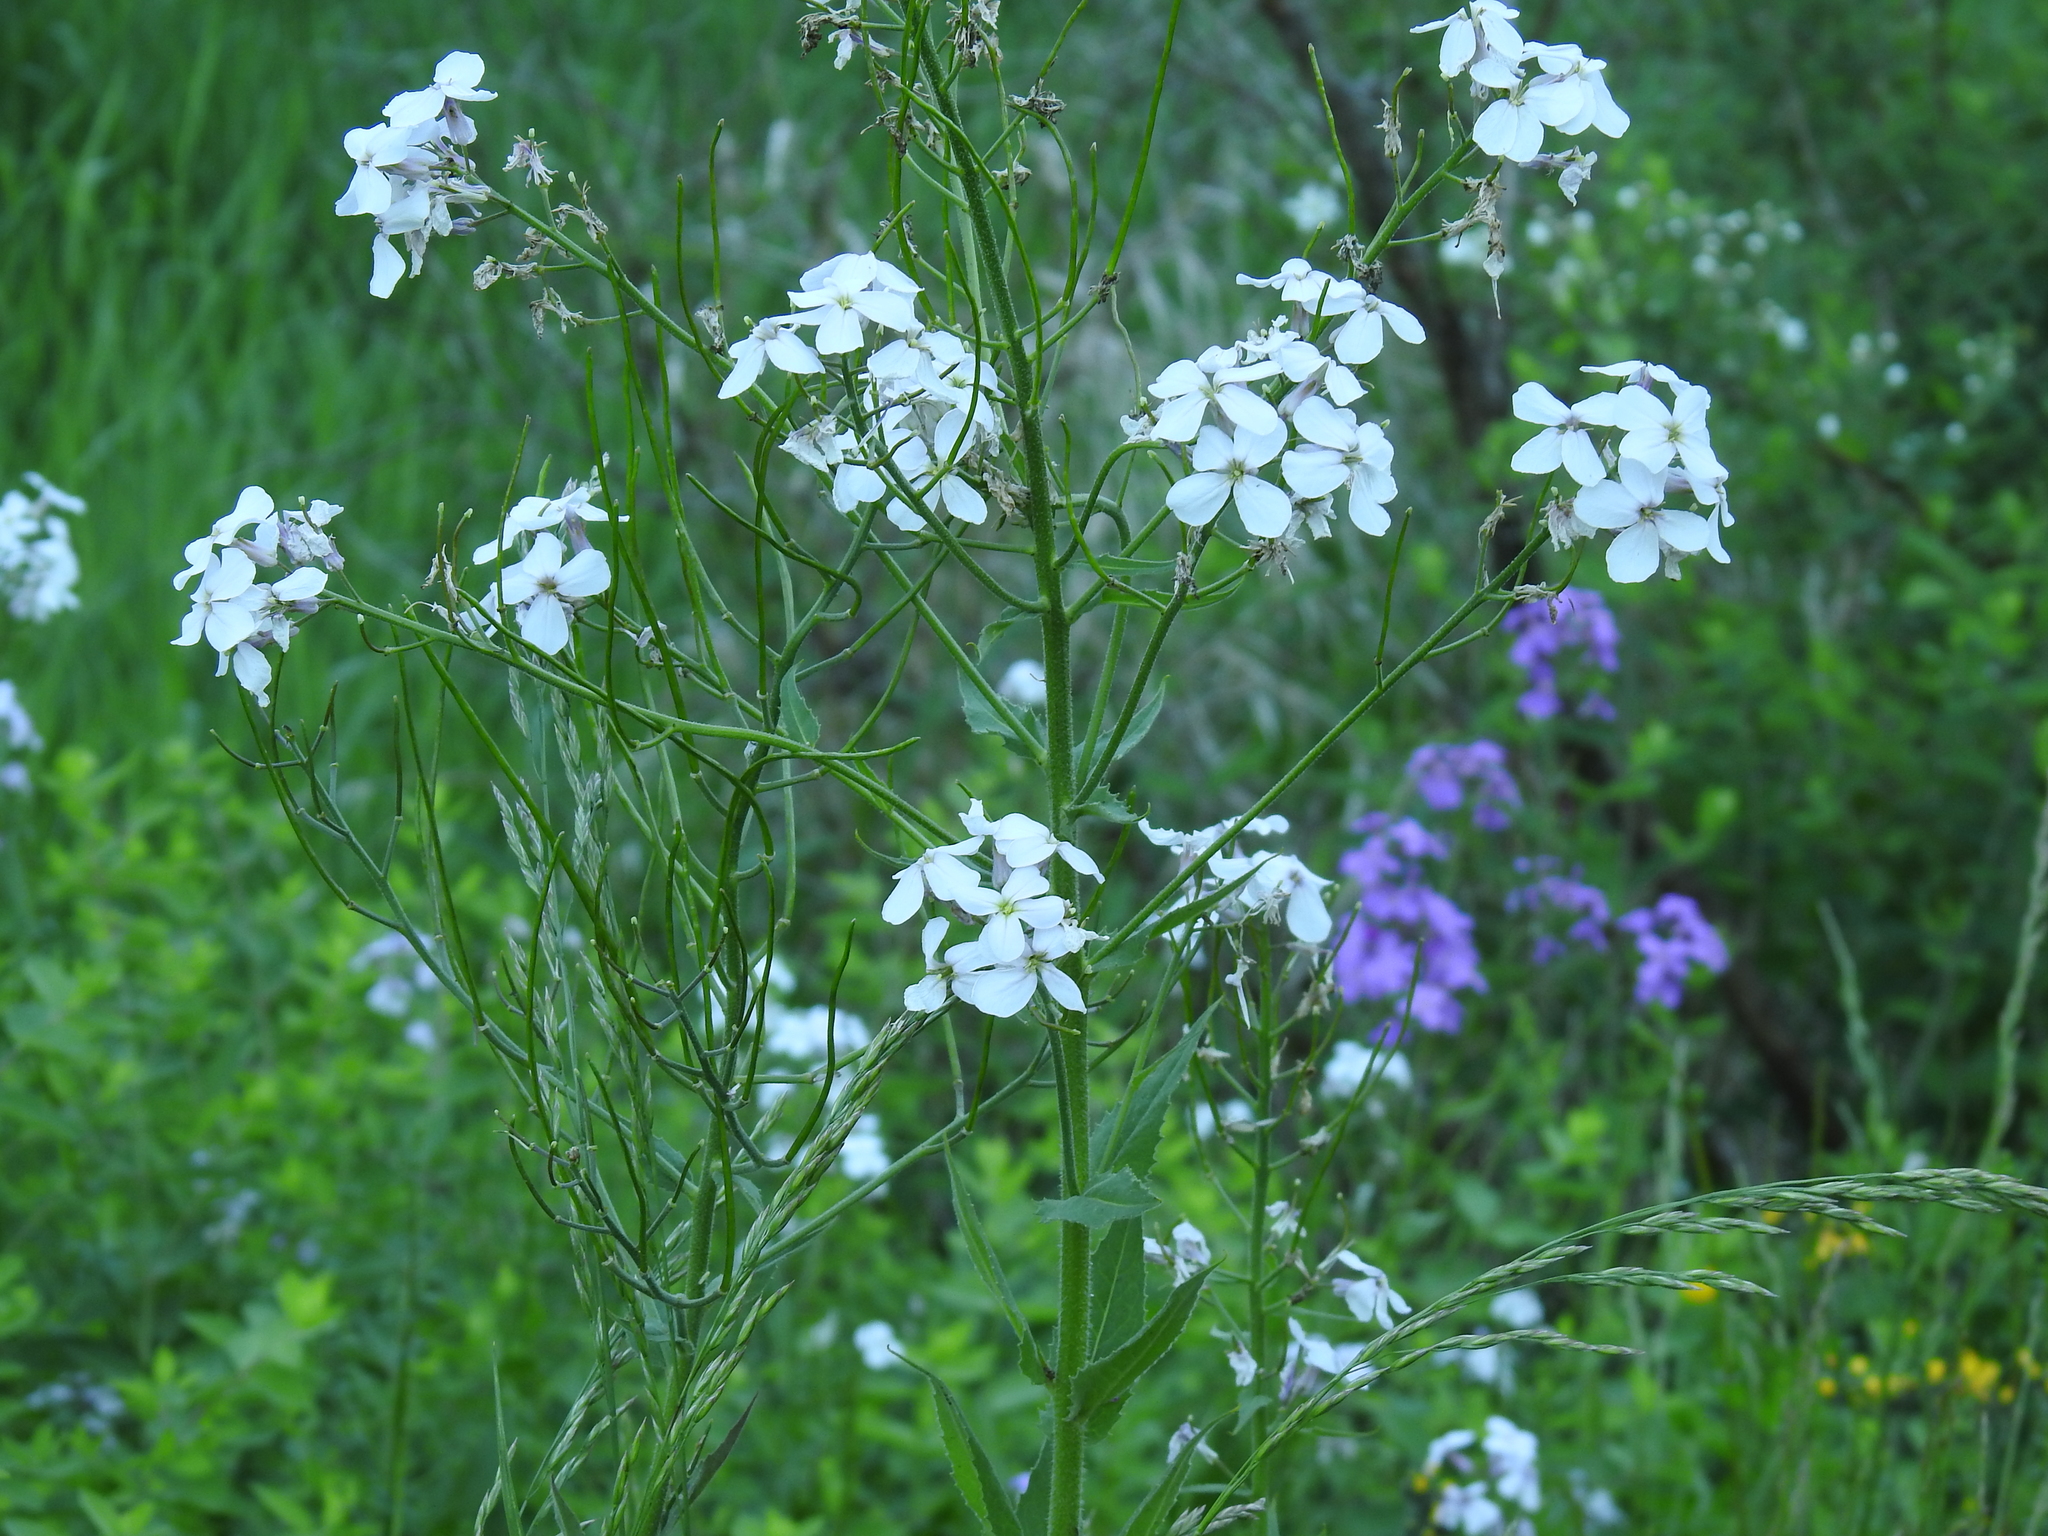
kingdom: Plantae
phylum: Tracheophyta
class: Magnoliopsida
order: Brassicales
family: Brassicaceae
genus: Hesperis
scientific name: Hesperis matronalis
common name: Dame's-violet
